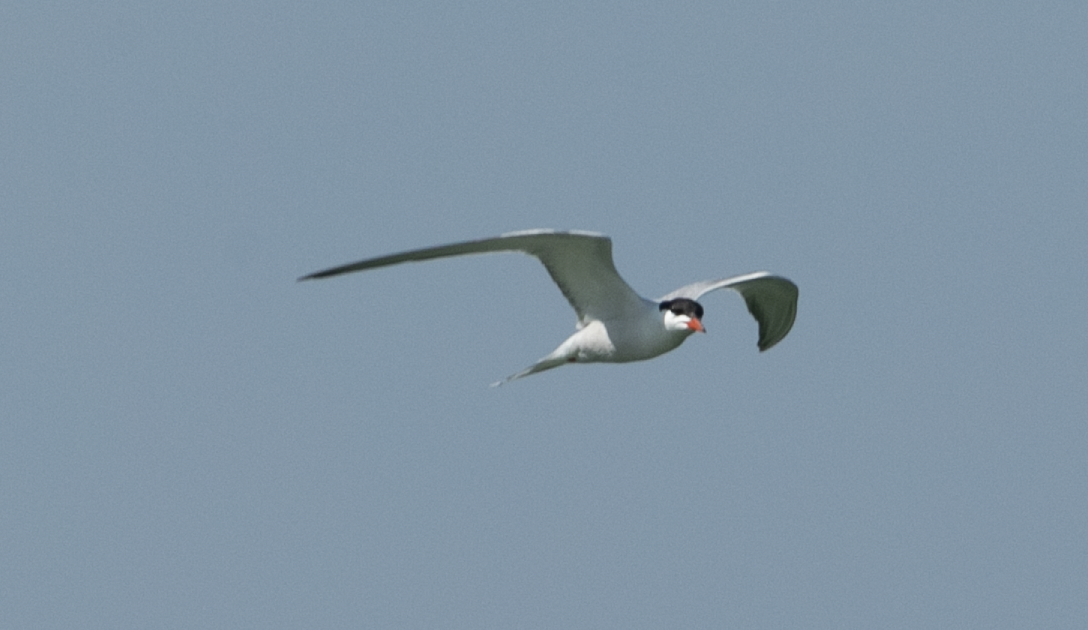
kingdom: Animalia
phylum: Chordata
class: Aves
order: Charadriiformes
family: Laridae
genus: Sterna
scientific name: Sterna hirundo
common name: Common tern
